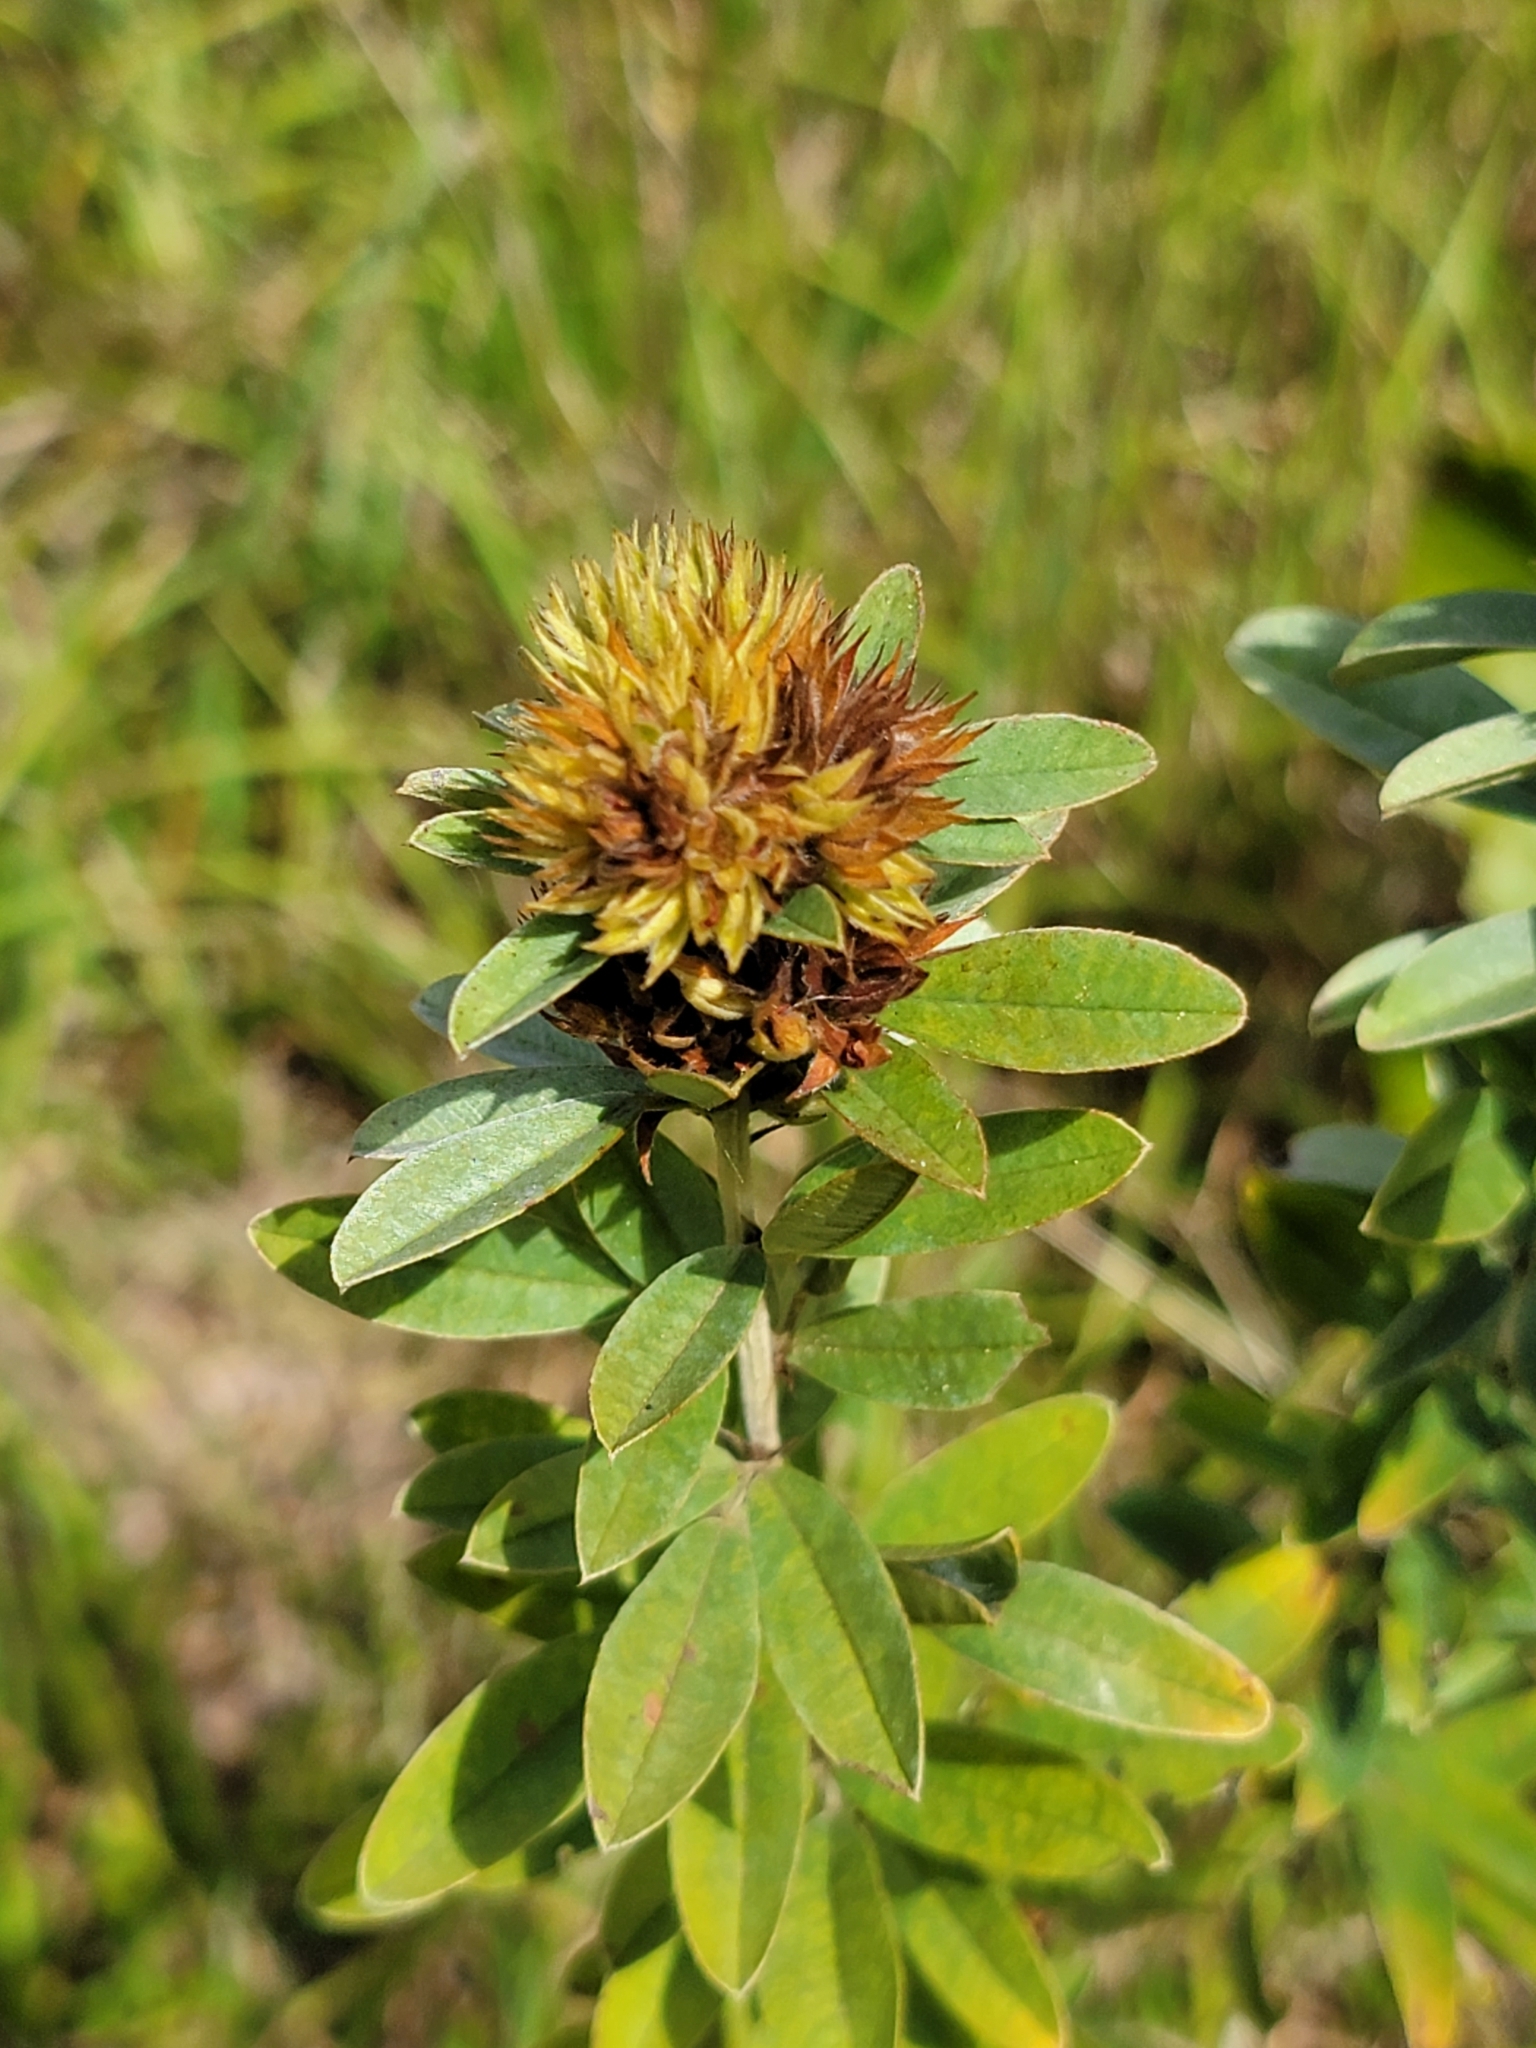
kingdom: Plantae
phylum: Tracheophyta
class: Magnoliopsida
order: Fabales
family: Fabaceae
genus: Lespedeza
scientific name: Lespedeza capitata
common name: Dusty clover
